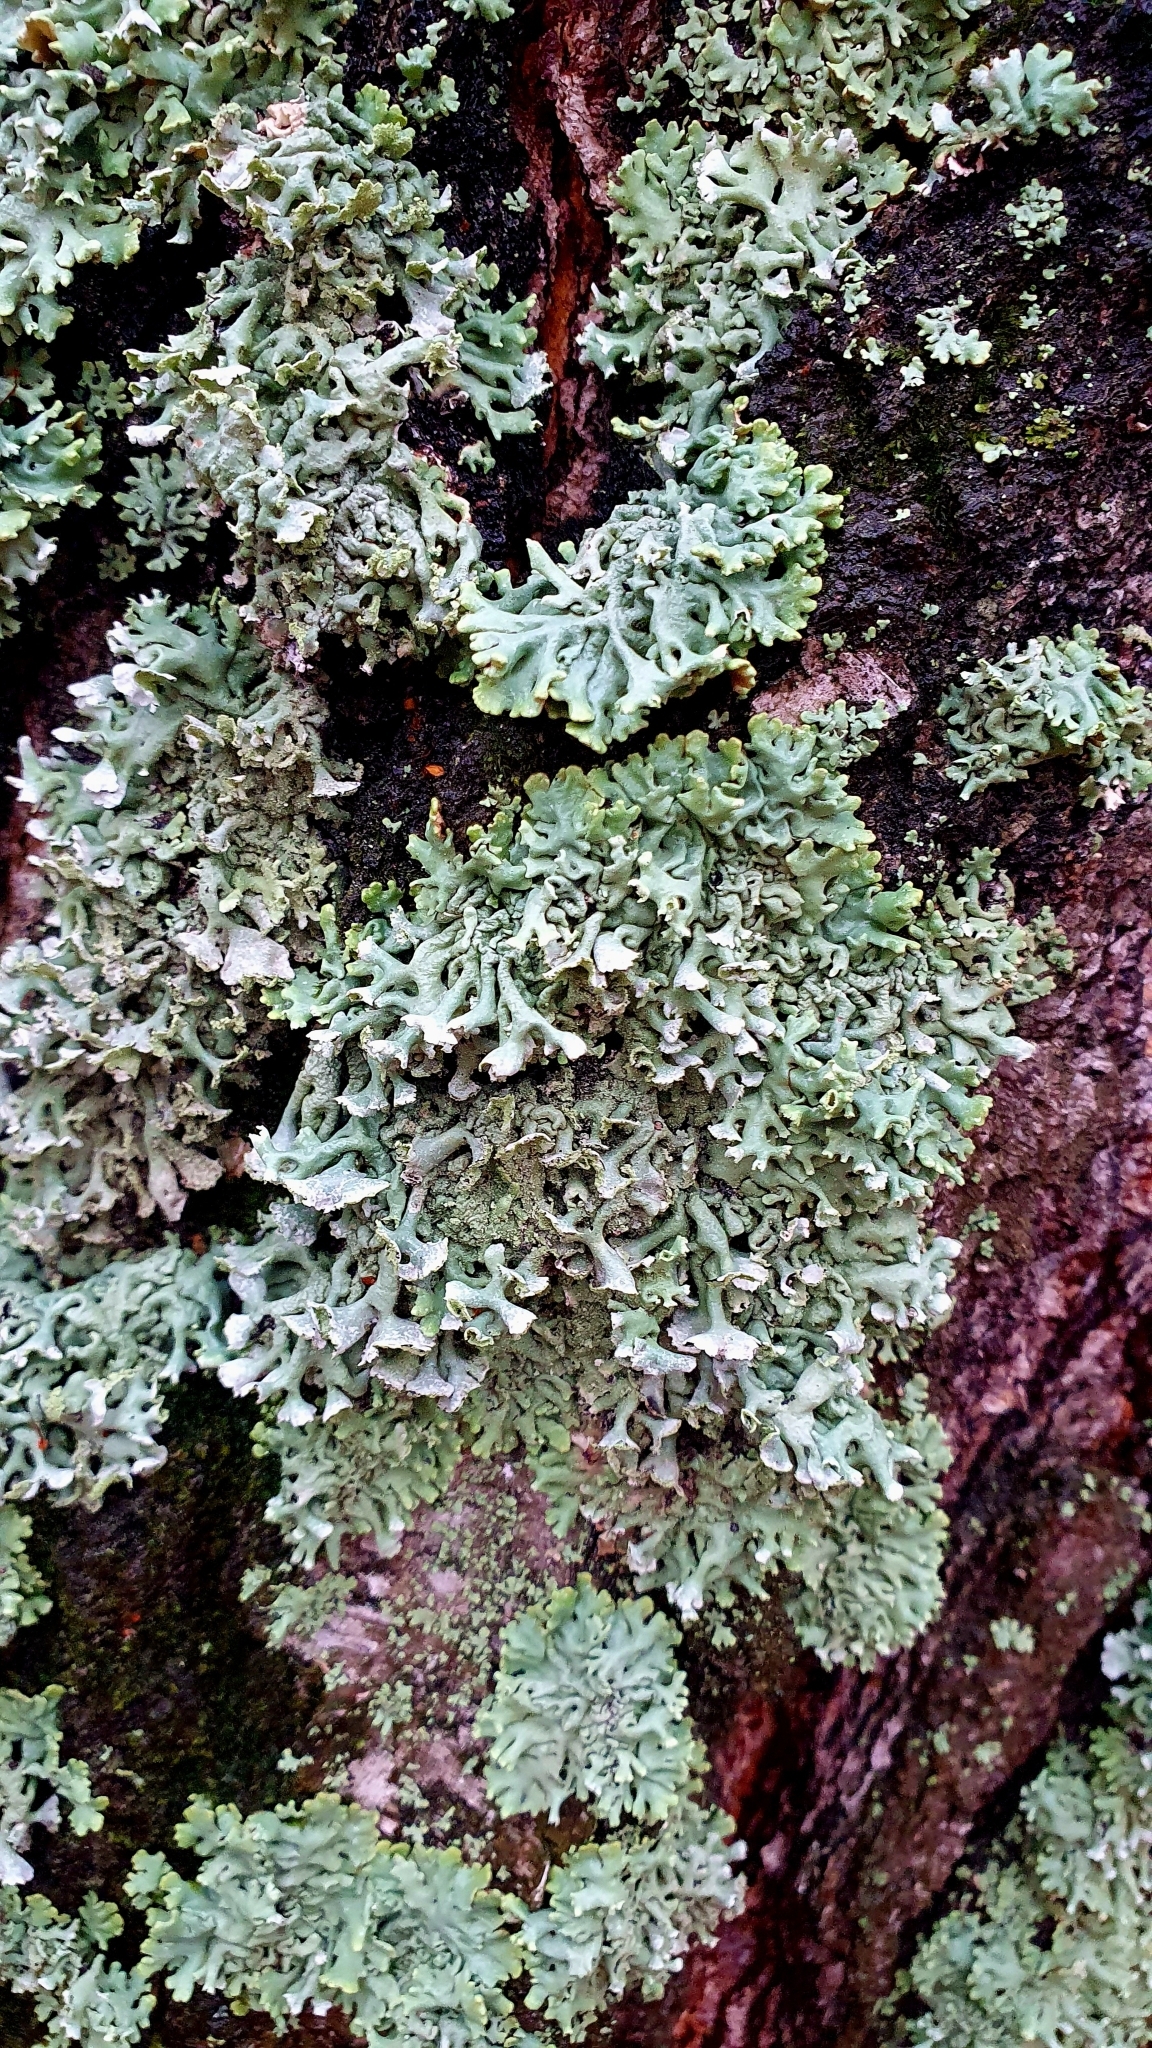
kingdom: Fungi
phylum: Ascomycota
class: Lecanoromycetes
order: Lecanorales
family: Parmeliaceae
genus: Hypogymnia
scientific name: Hypogymnia physodes
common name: Dark crottle
